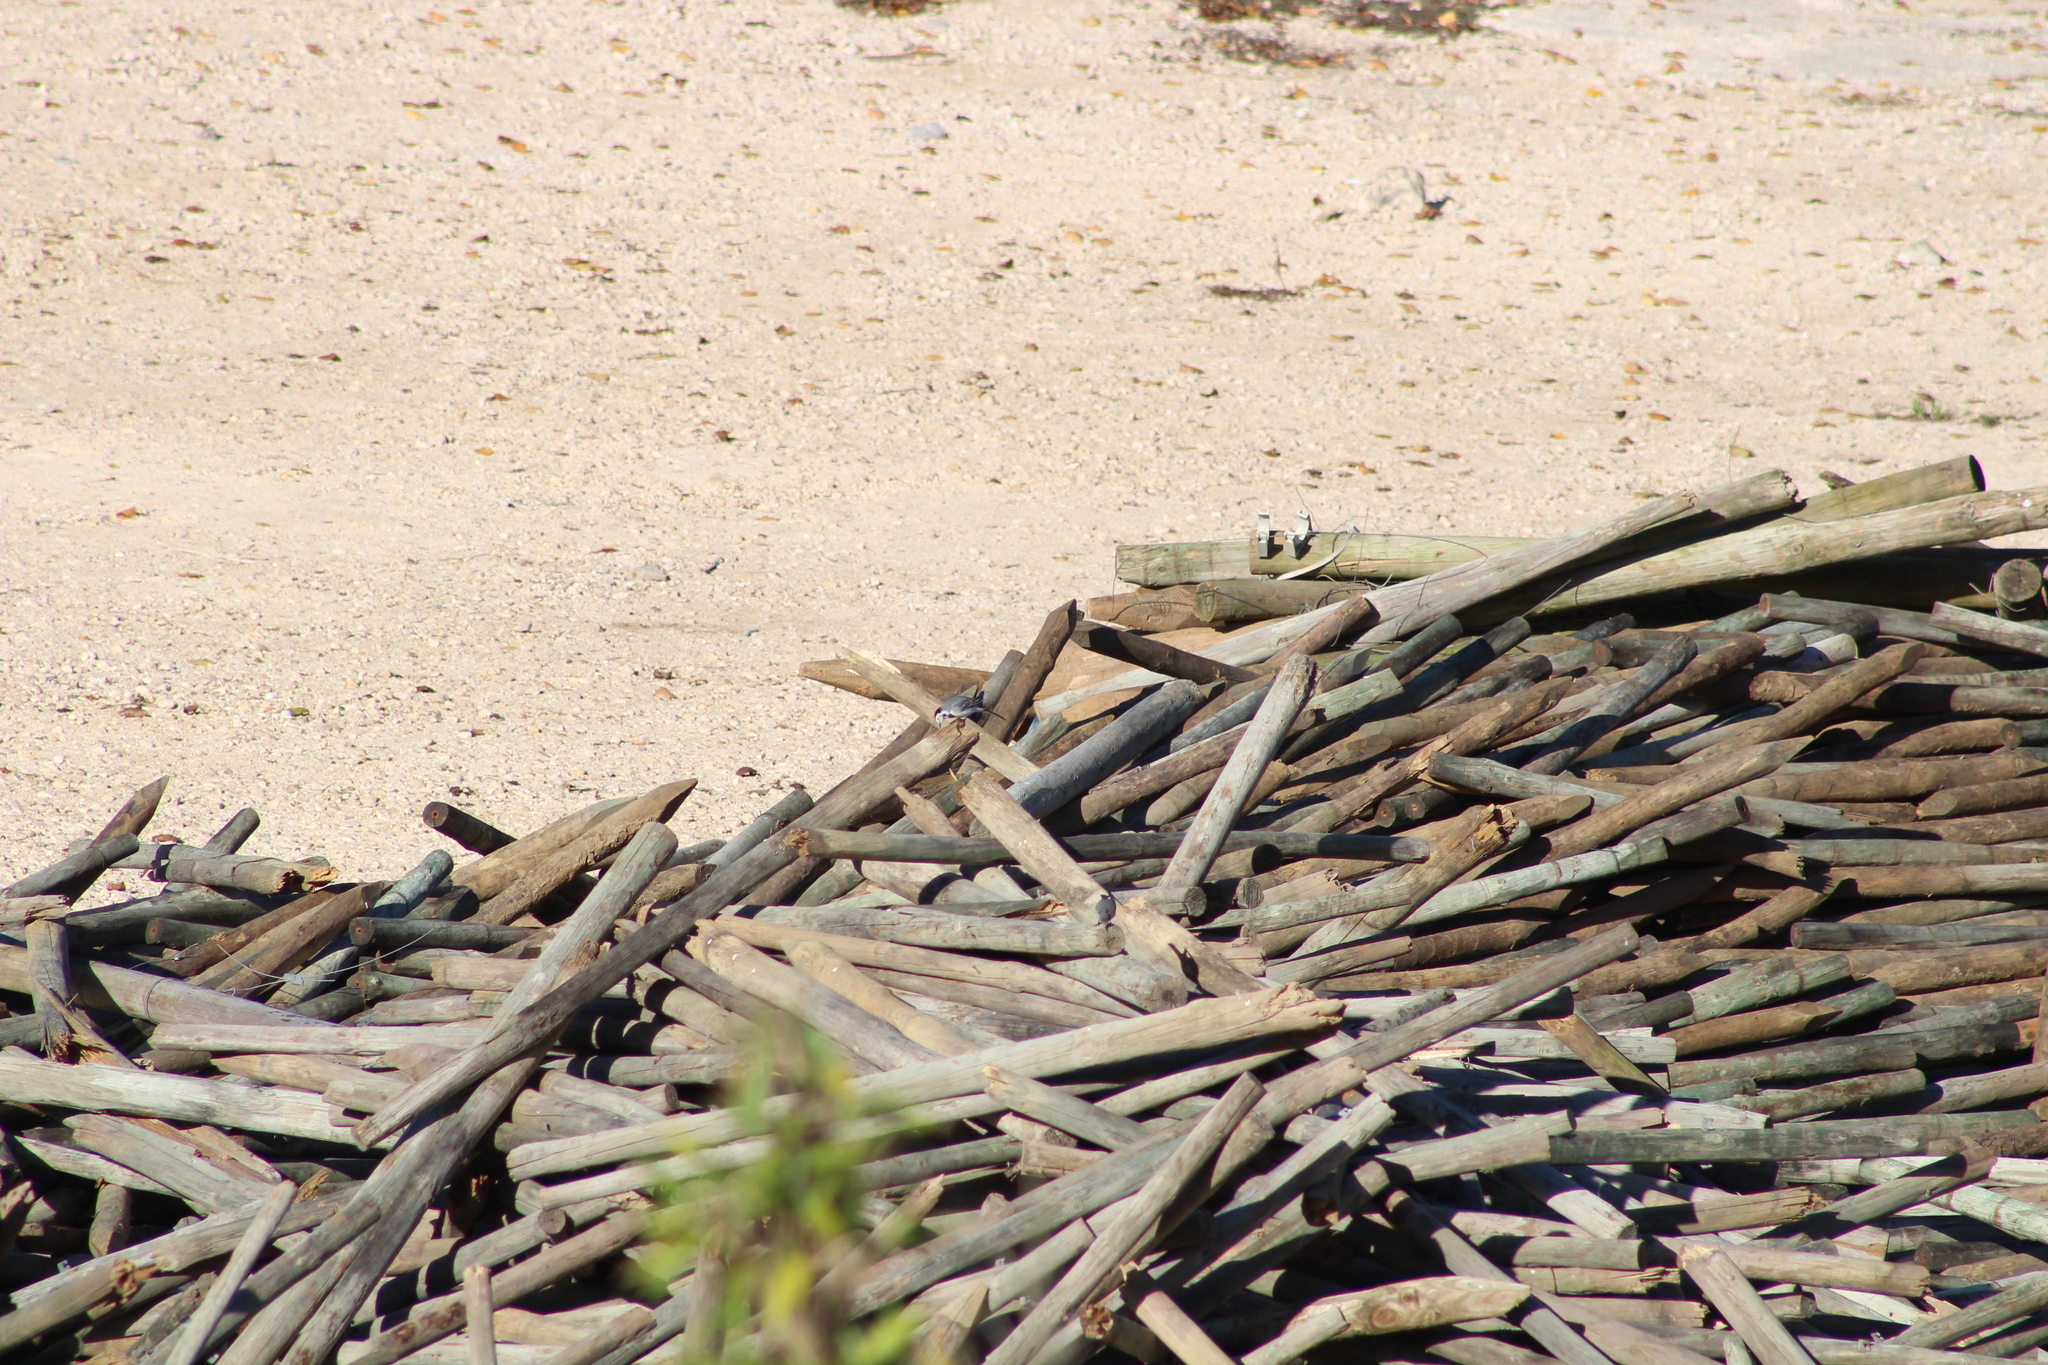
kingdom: Animalia
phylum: Chordata
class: Aves
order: Passeriformes
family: Motacillidae
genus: Motacilla
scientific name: Motacilla alba
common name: White wagtail
